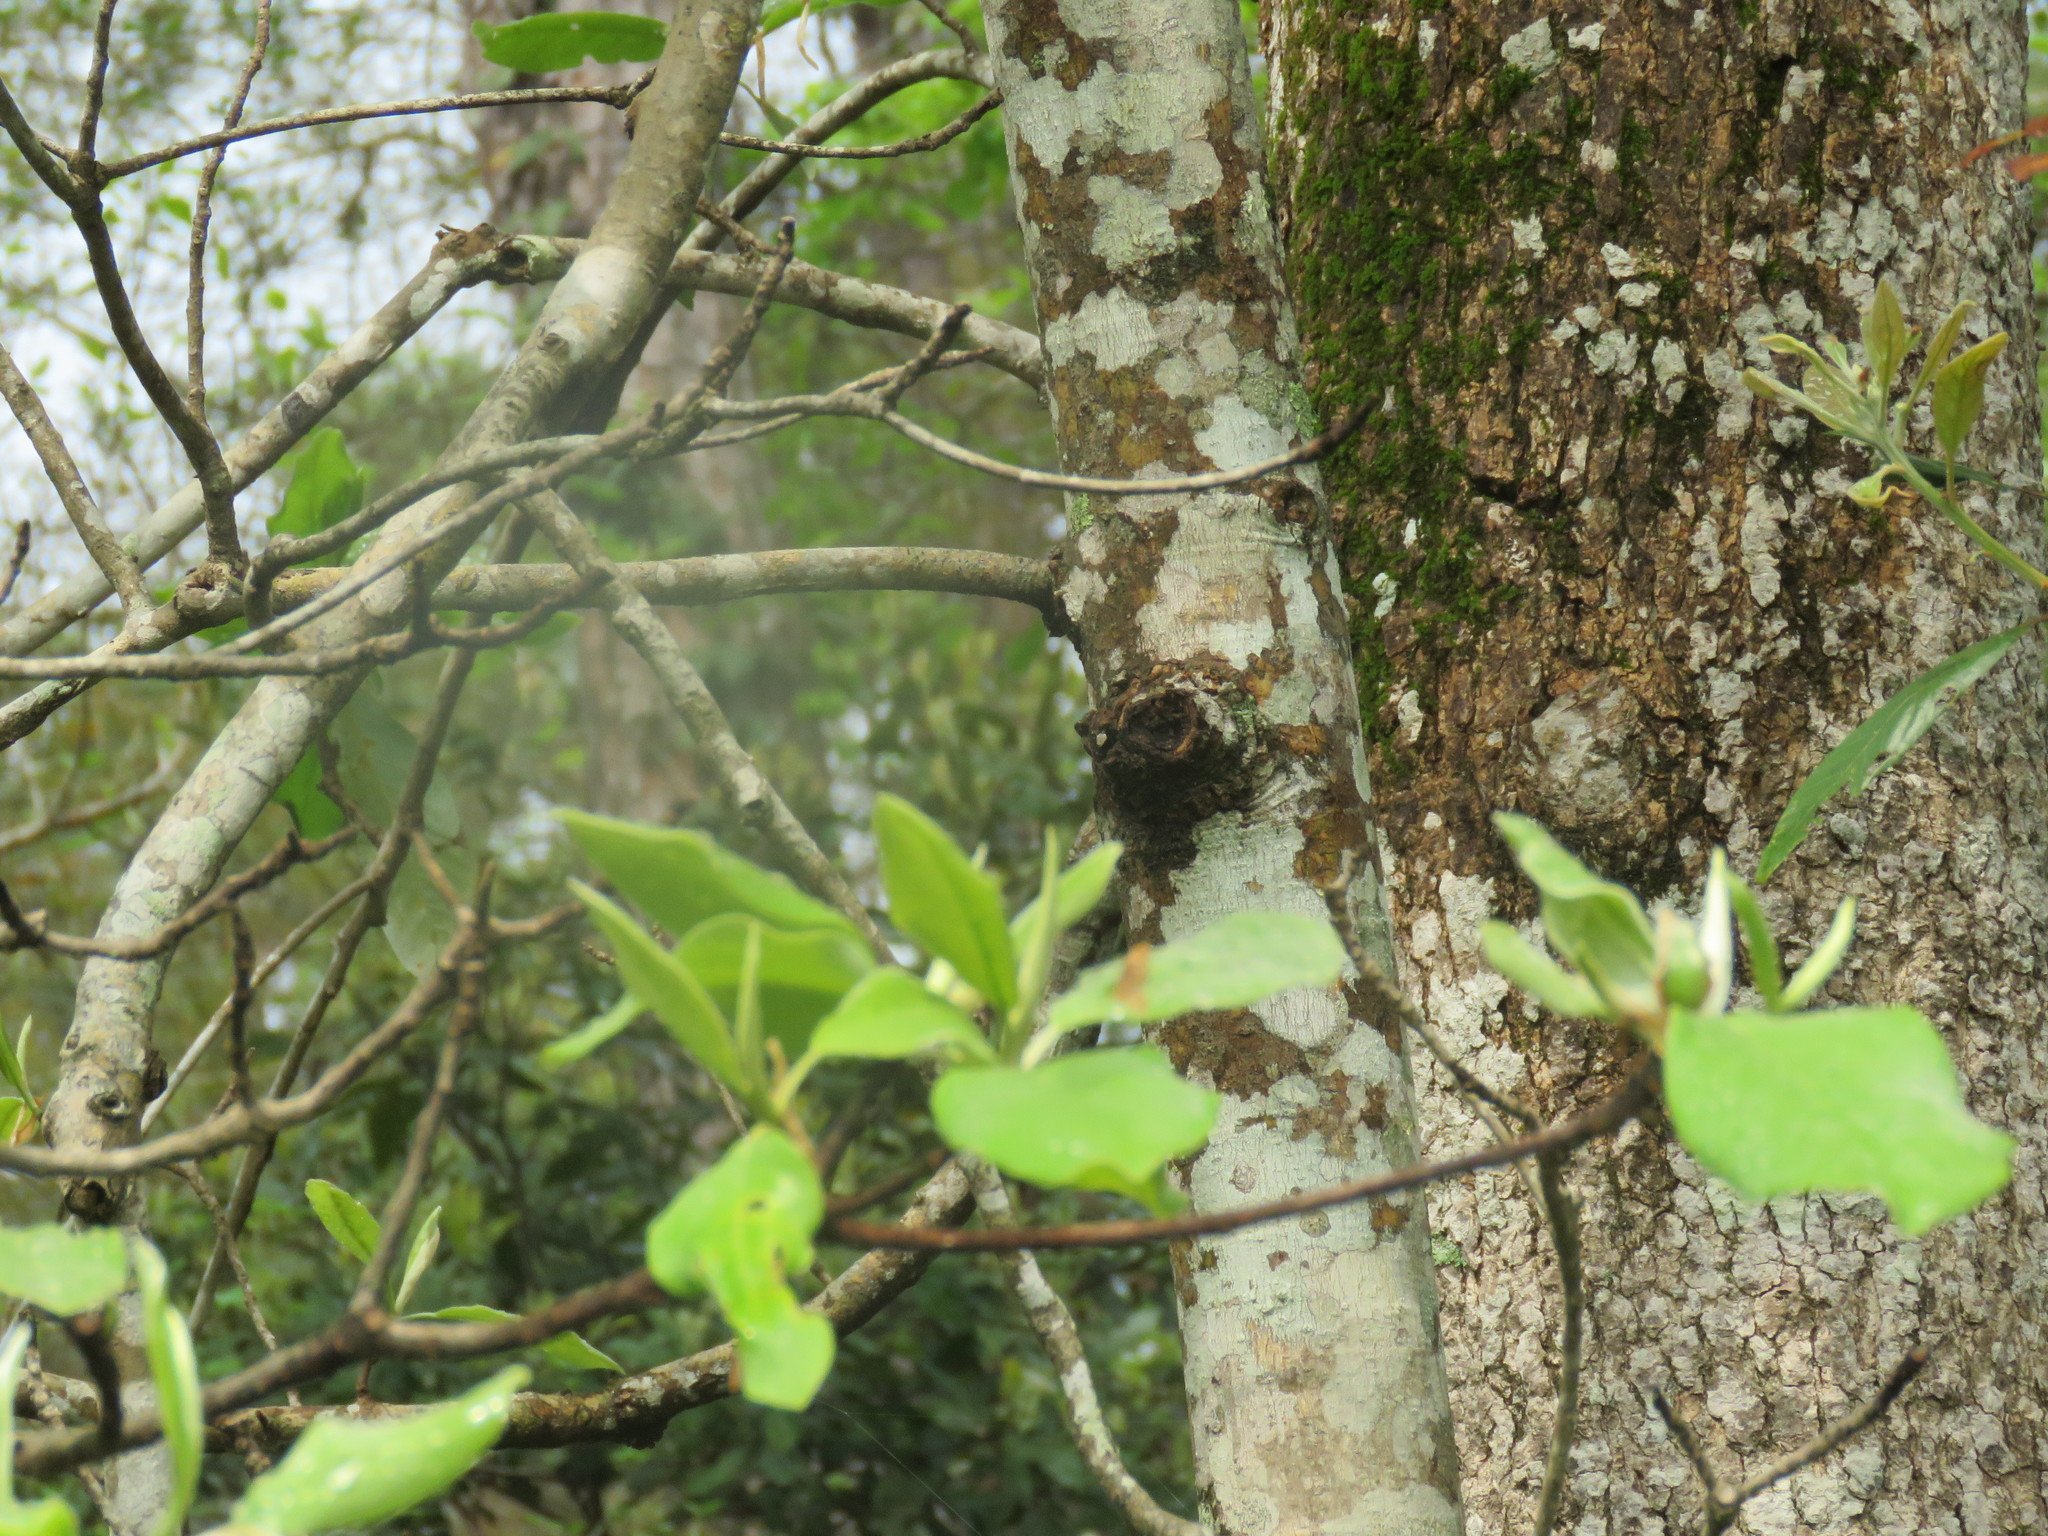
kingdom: Plantae
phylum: Tracheophyta
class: Magnoliopsida
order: Magnoliales
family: Magnoliaceae
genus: Magnolia
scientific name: Magnolia virginiana
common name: Swamp bay
